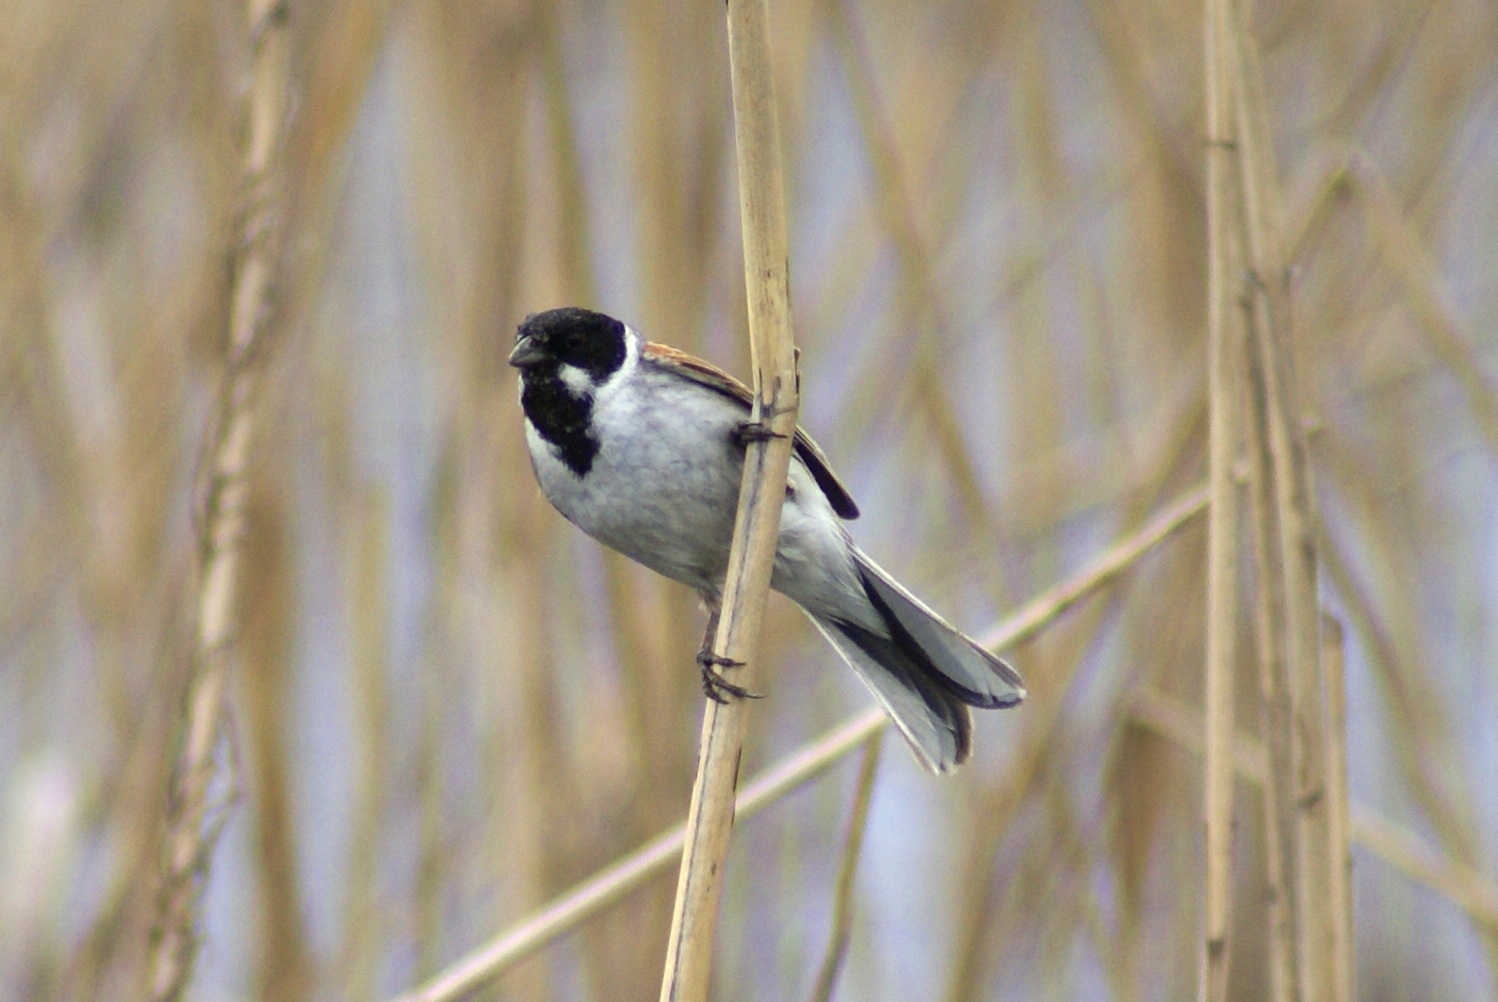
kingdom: Animalia
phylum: Chordata
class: Aves
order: Passeriformes
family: Emberizidae
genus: Emberiza
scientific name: Emberiza schoeniclus
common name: Reed bunting
